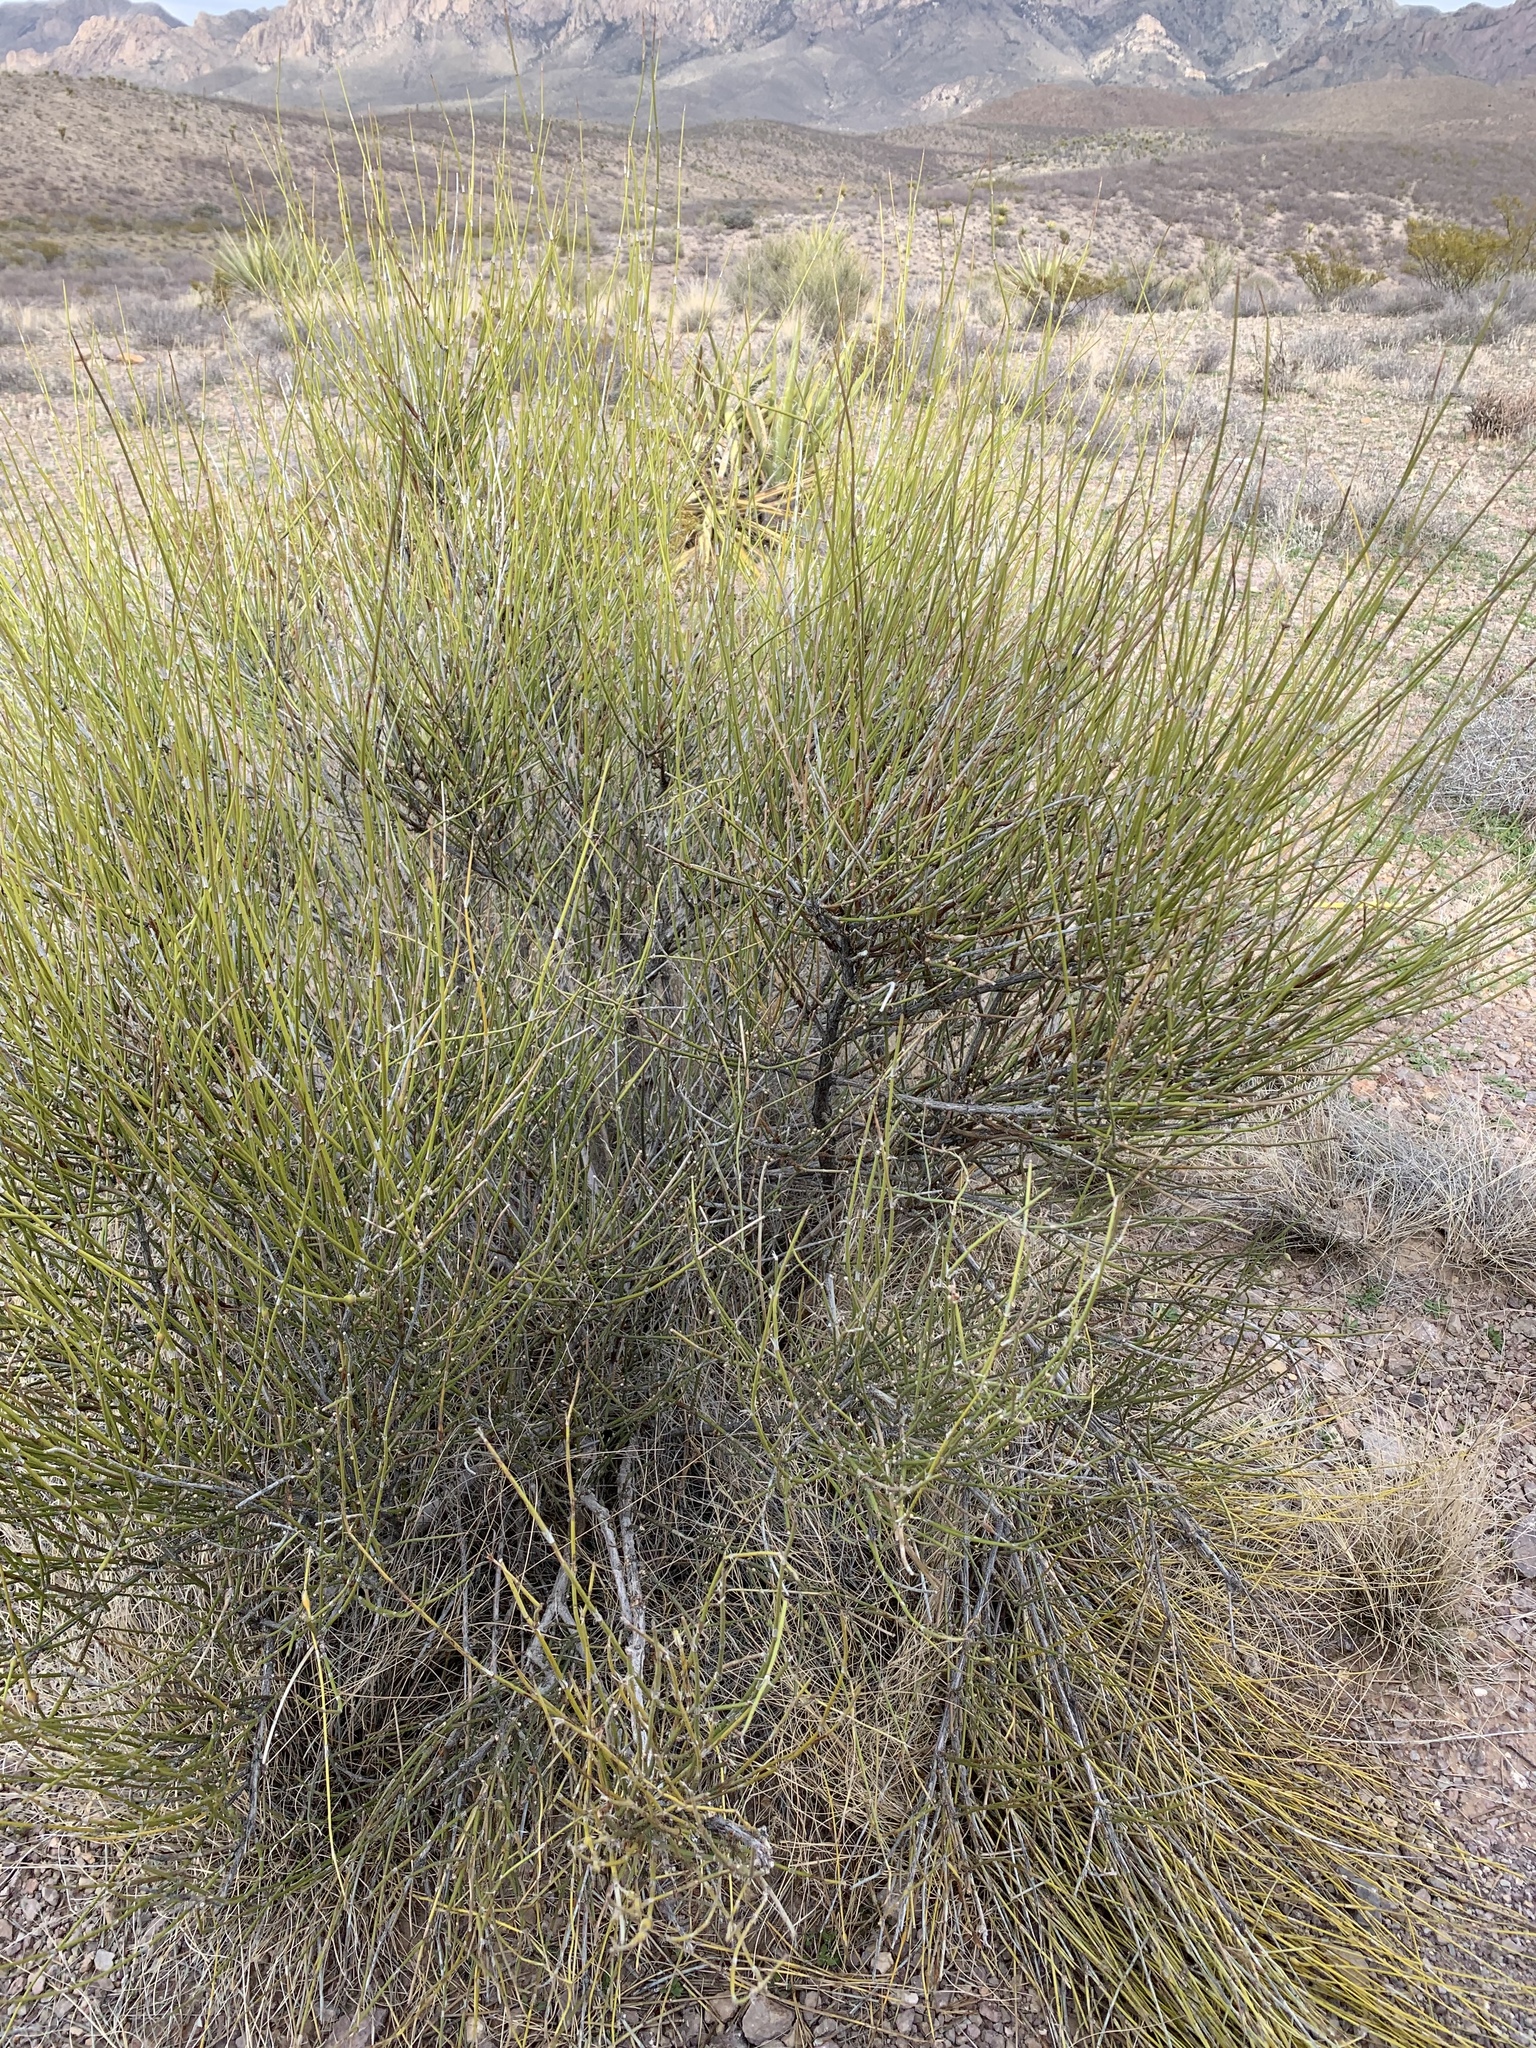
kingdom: Plantae
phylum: Tracheophyta
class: Gnetopsida
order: Ephedrales
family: Ephedraceae
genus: Ephedra
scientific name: Ephedra trifurca
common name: Mexican-tea
